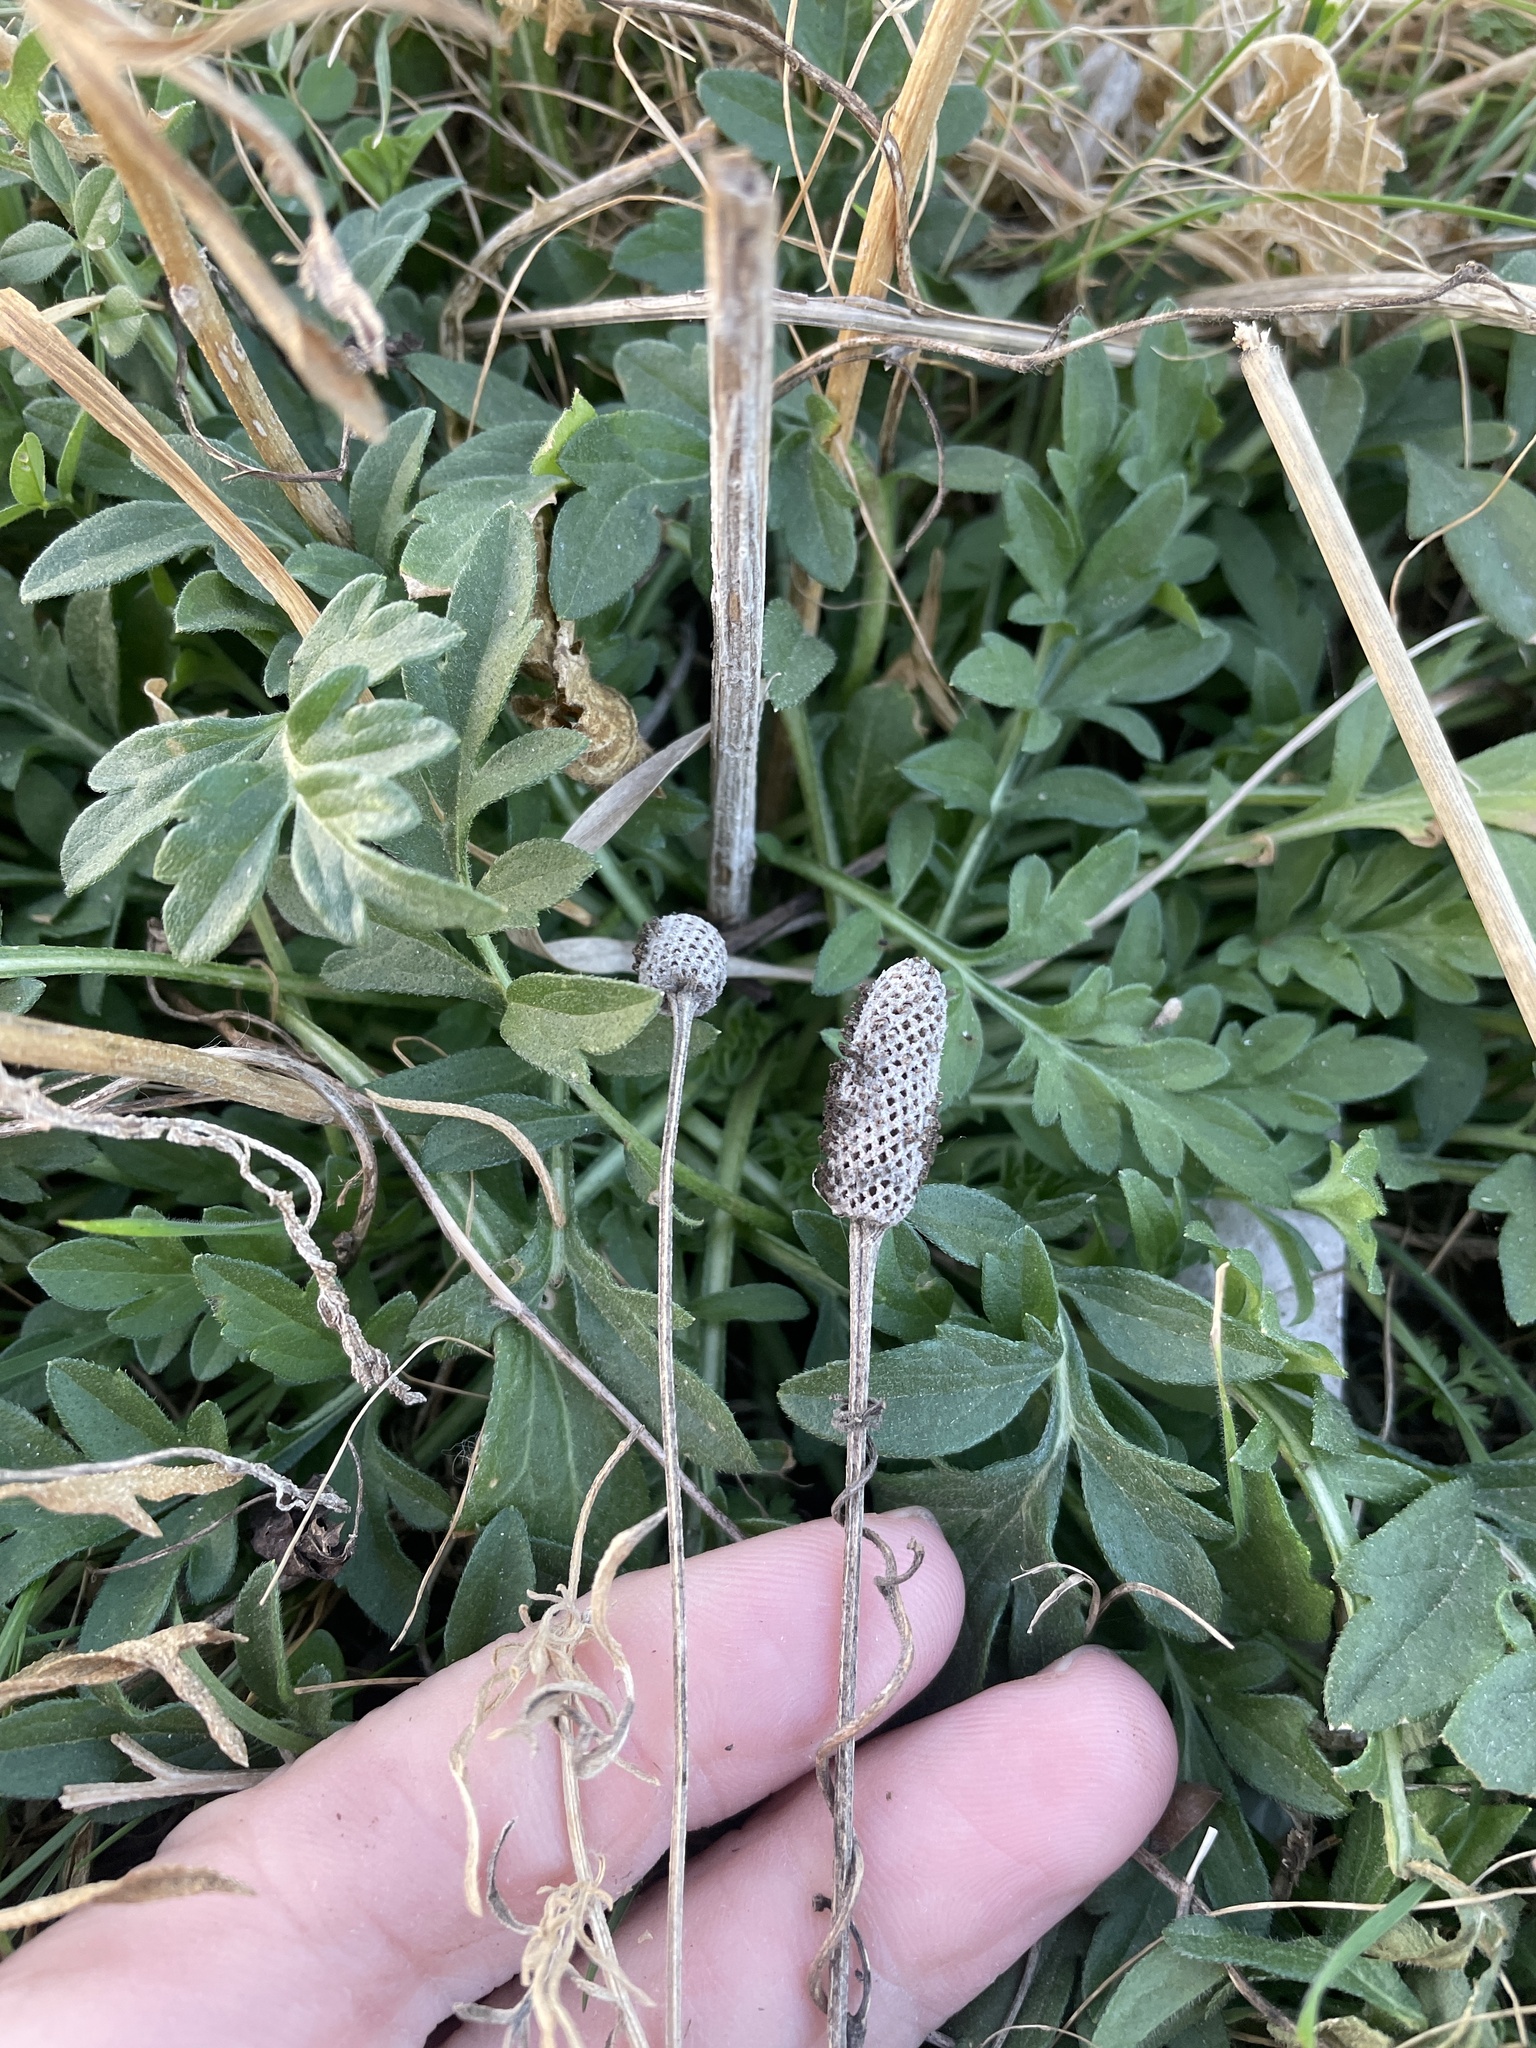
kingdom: Plantae
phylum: Tracheophyta
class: Magnoliopsida
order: Asterales
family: Asteraceae
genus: Ratibida
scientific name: Ratibida columnifera
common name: Prairie coneflower
